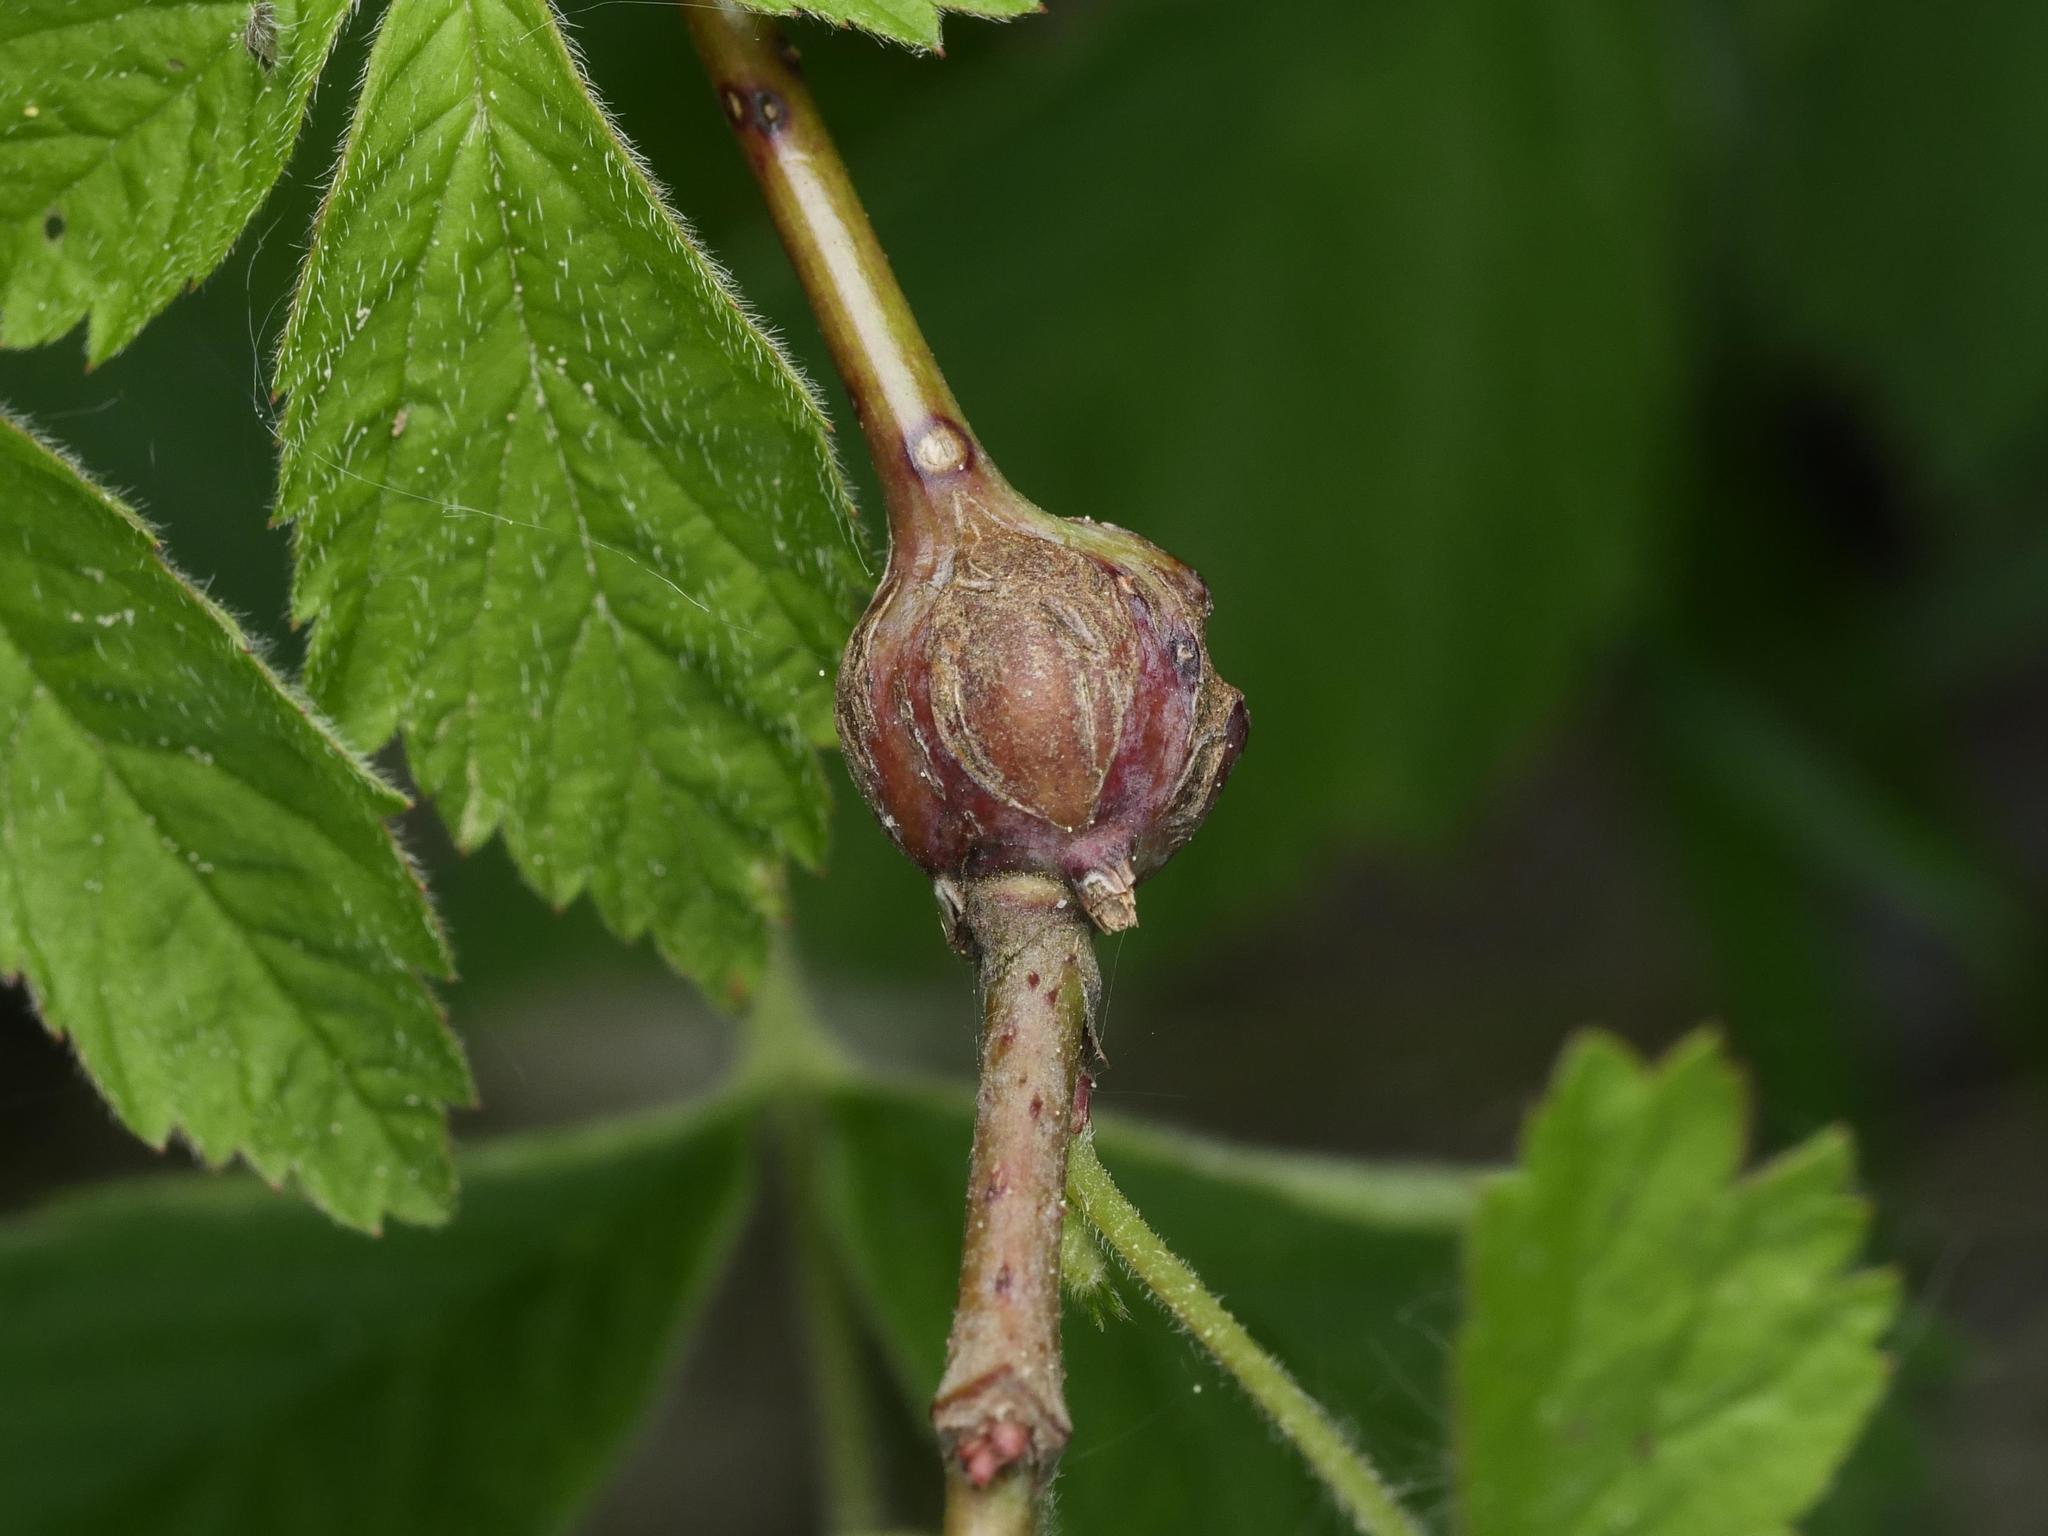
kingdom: Animalia
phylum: Arthropoda
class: Insecta
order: Diptera
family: Cecidomyiidae
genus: Lasioptera
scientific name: Lasioptera rubi
